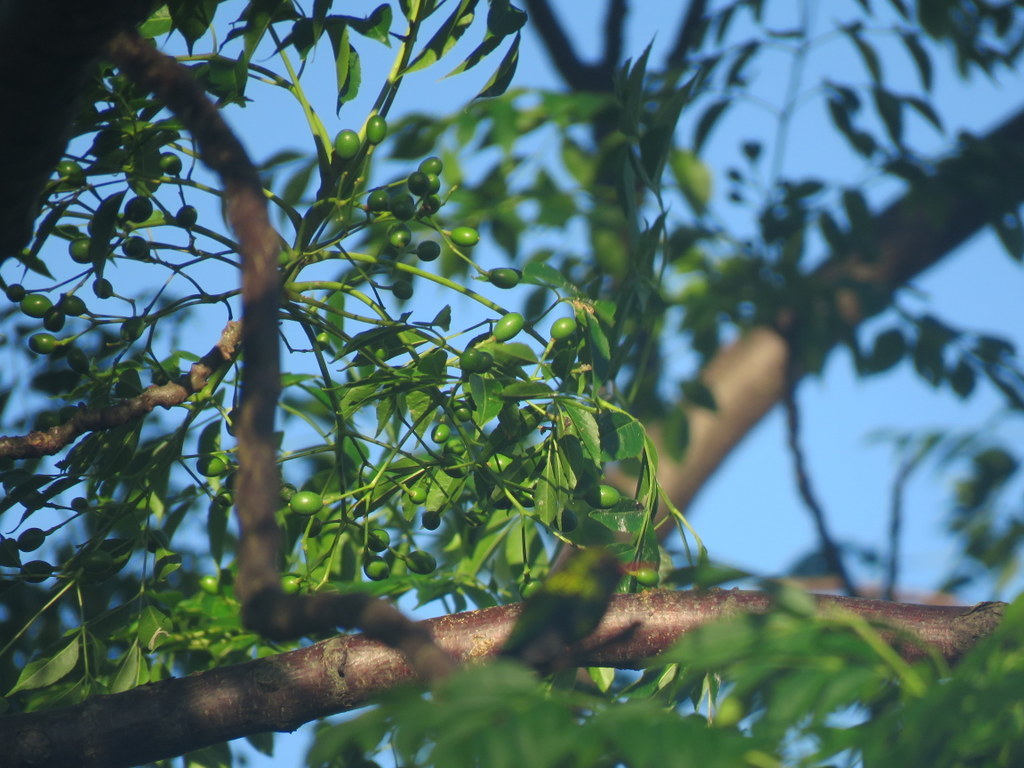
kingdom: Plantae
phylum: Tracheophyta
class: Magnoliopsida
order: Sapindales
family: Meliaceae
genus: Melia
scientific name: Melia azedarach
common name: Chinaberrytree
